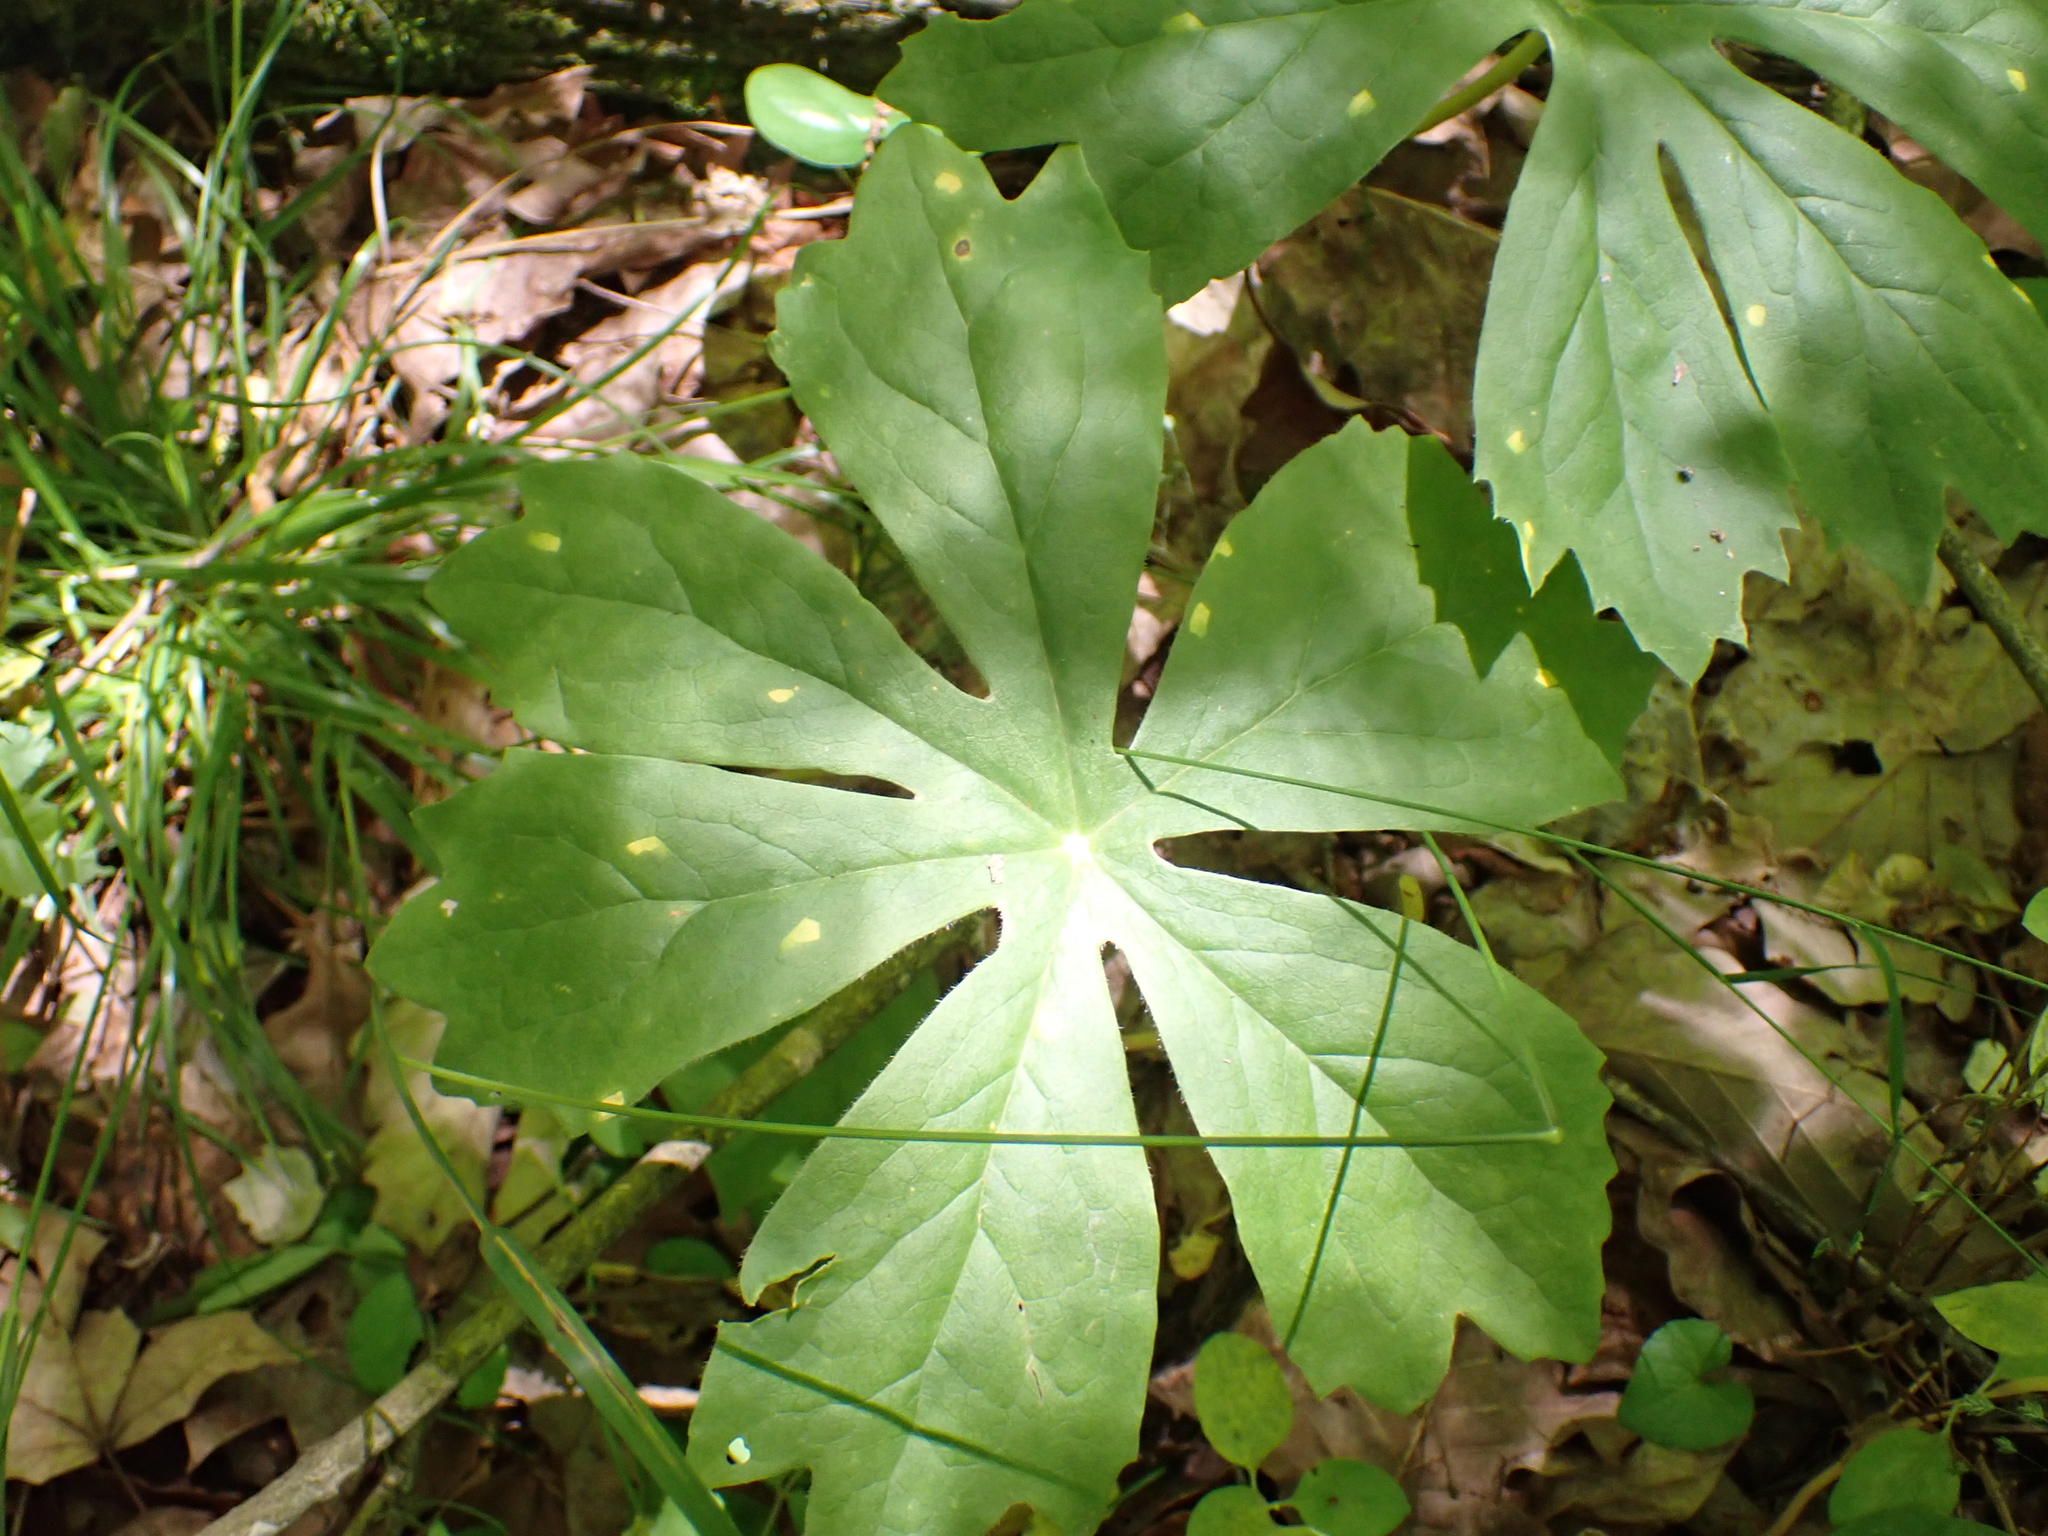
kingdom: Plantae
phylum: Tracheophyta
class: Magnoliopsida
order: Ranunculales
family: Berberidaceae
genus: Podophyllum
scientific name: Podophyllum peltatum
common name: Wild mandrake
